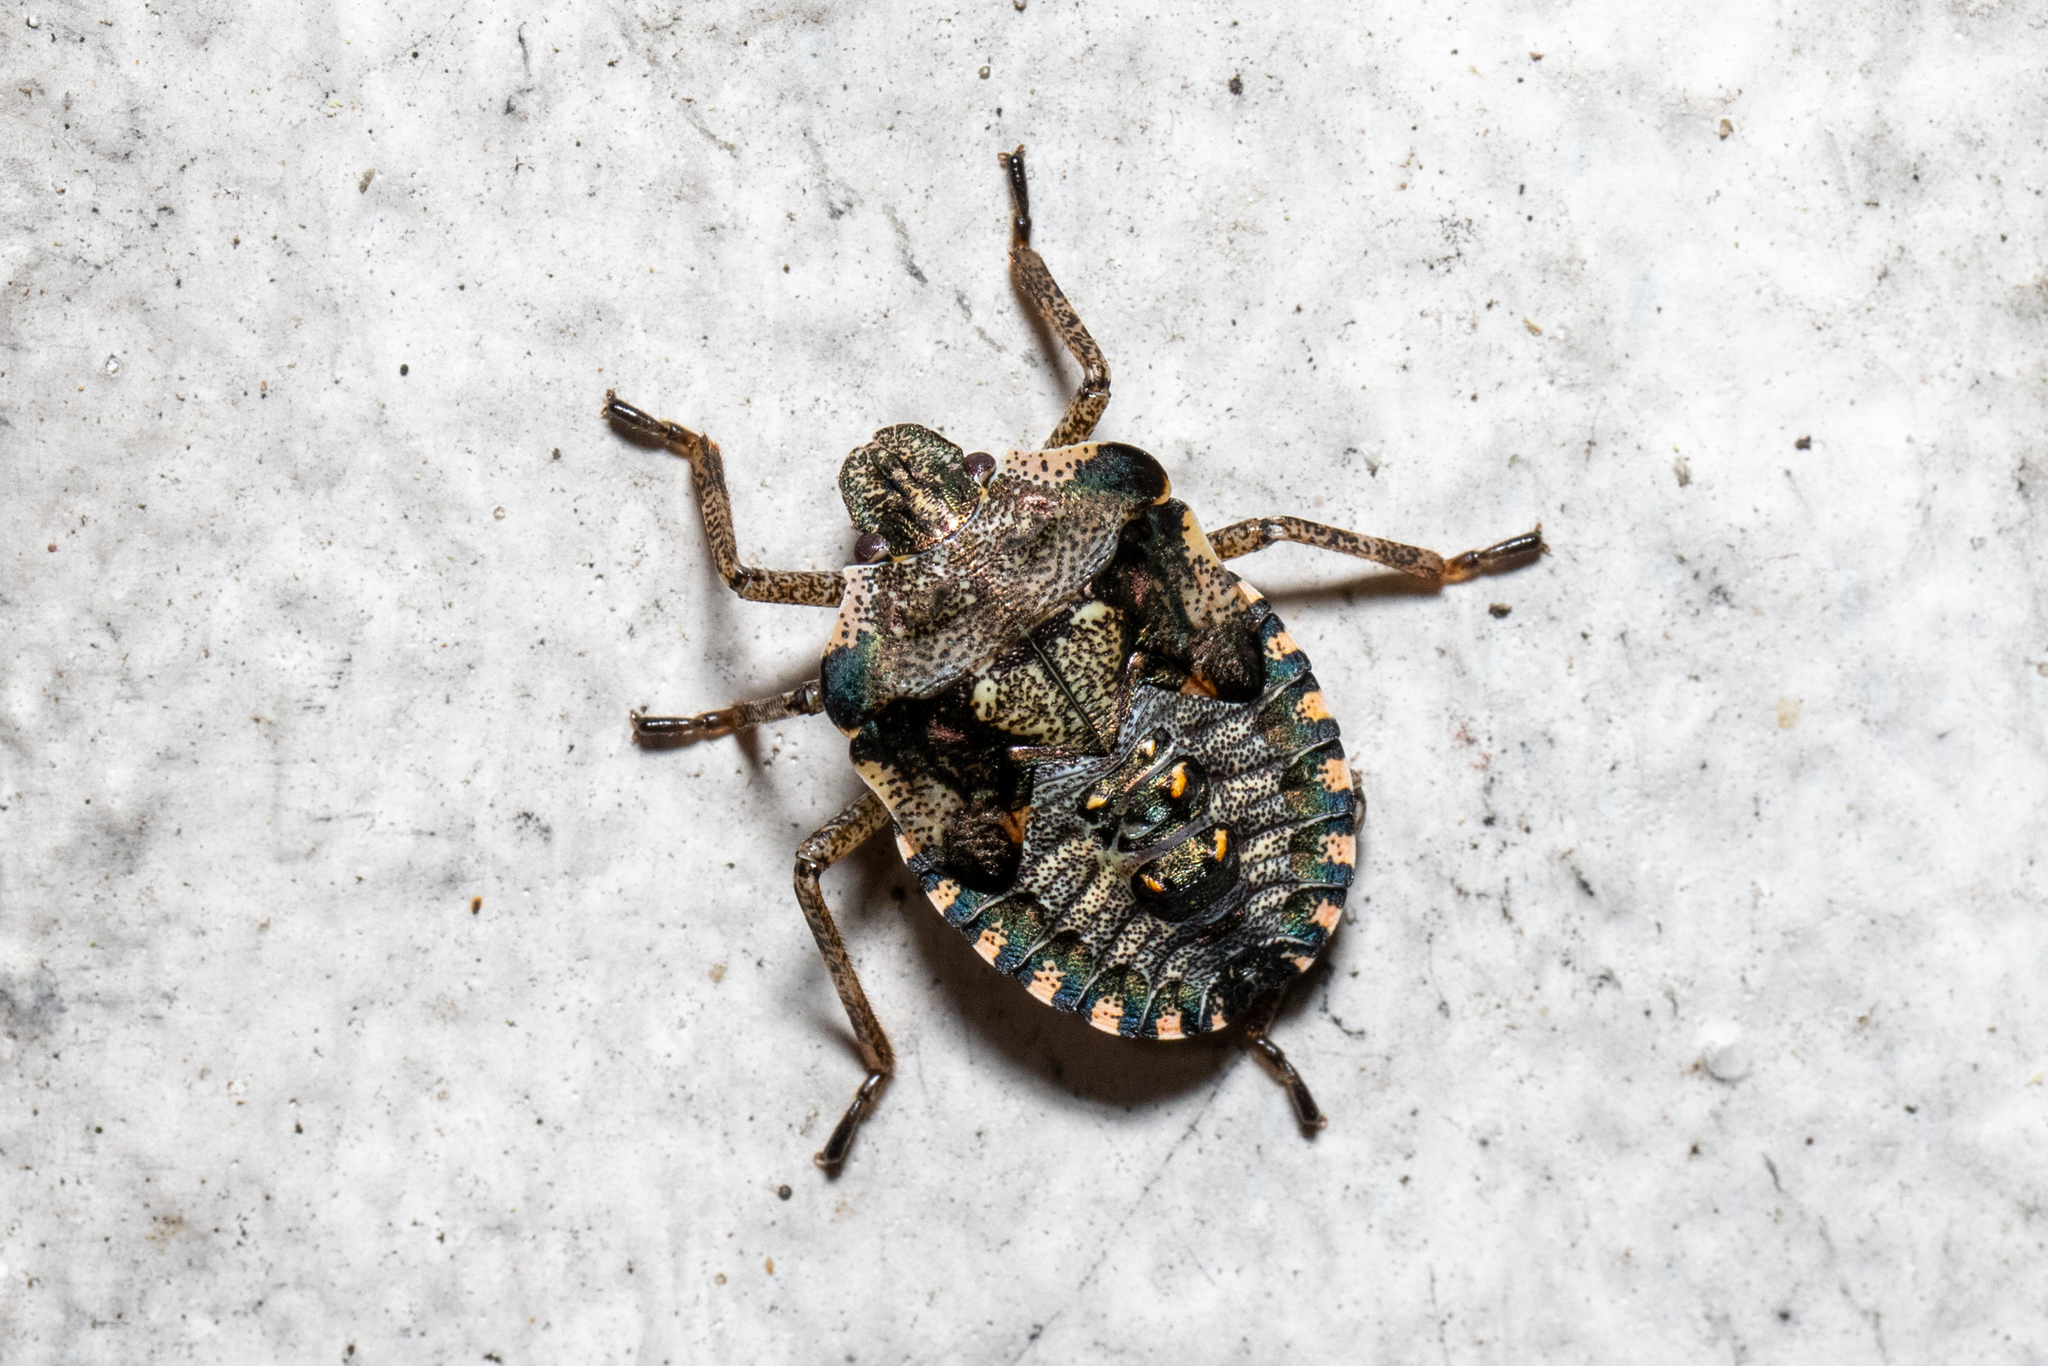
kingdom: Animalia
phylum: Arthropoda
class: Insecta
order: Hemiptera
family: Pentatomidae
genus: Pentatoma
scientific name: Pentatoma rufipes
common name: Forest bug
